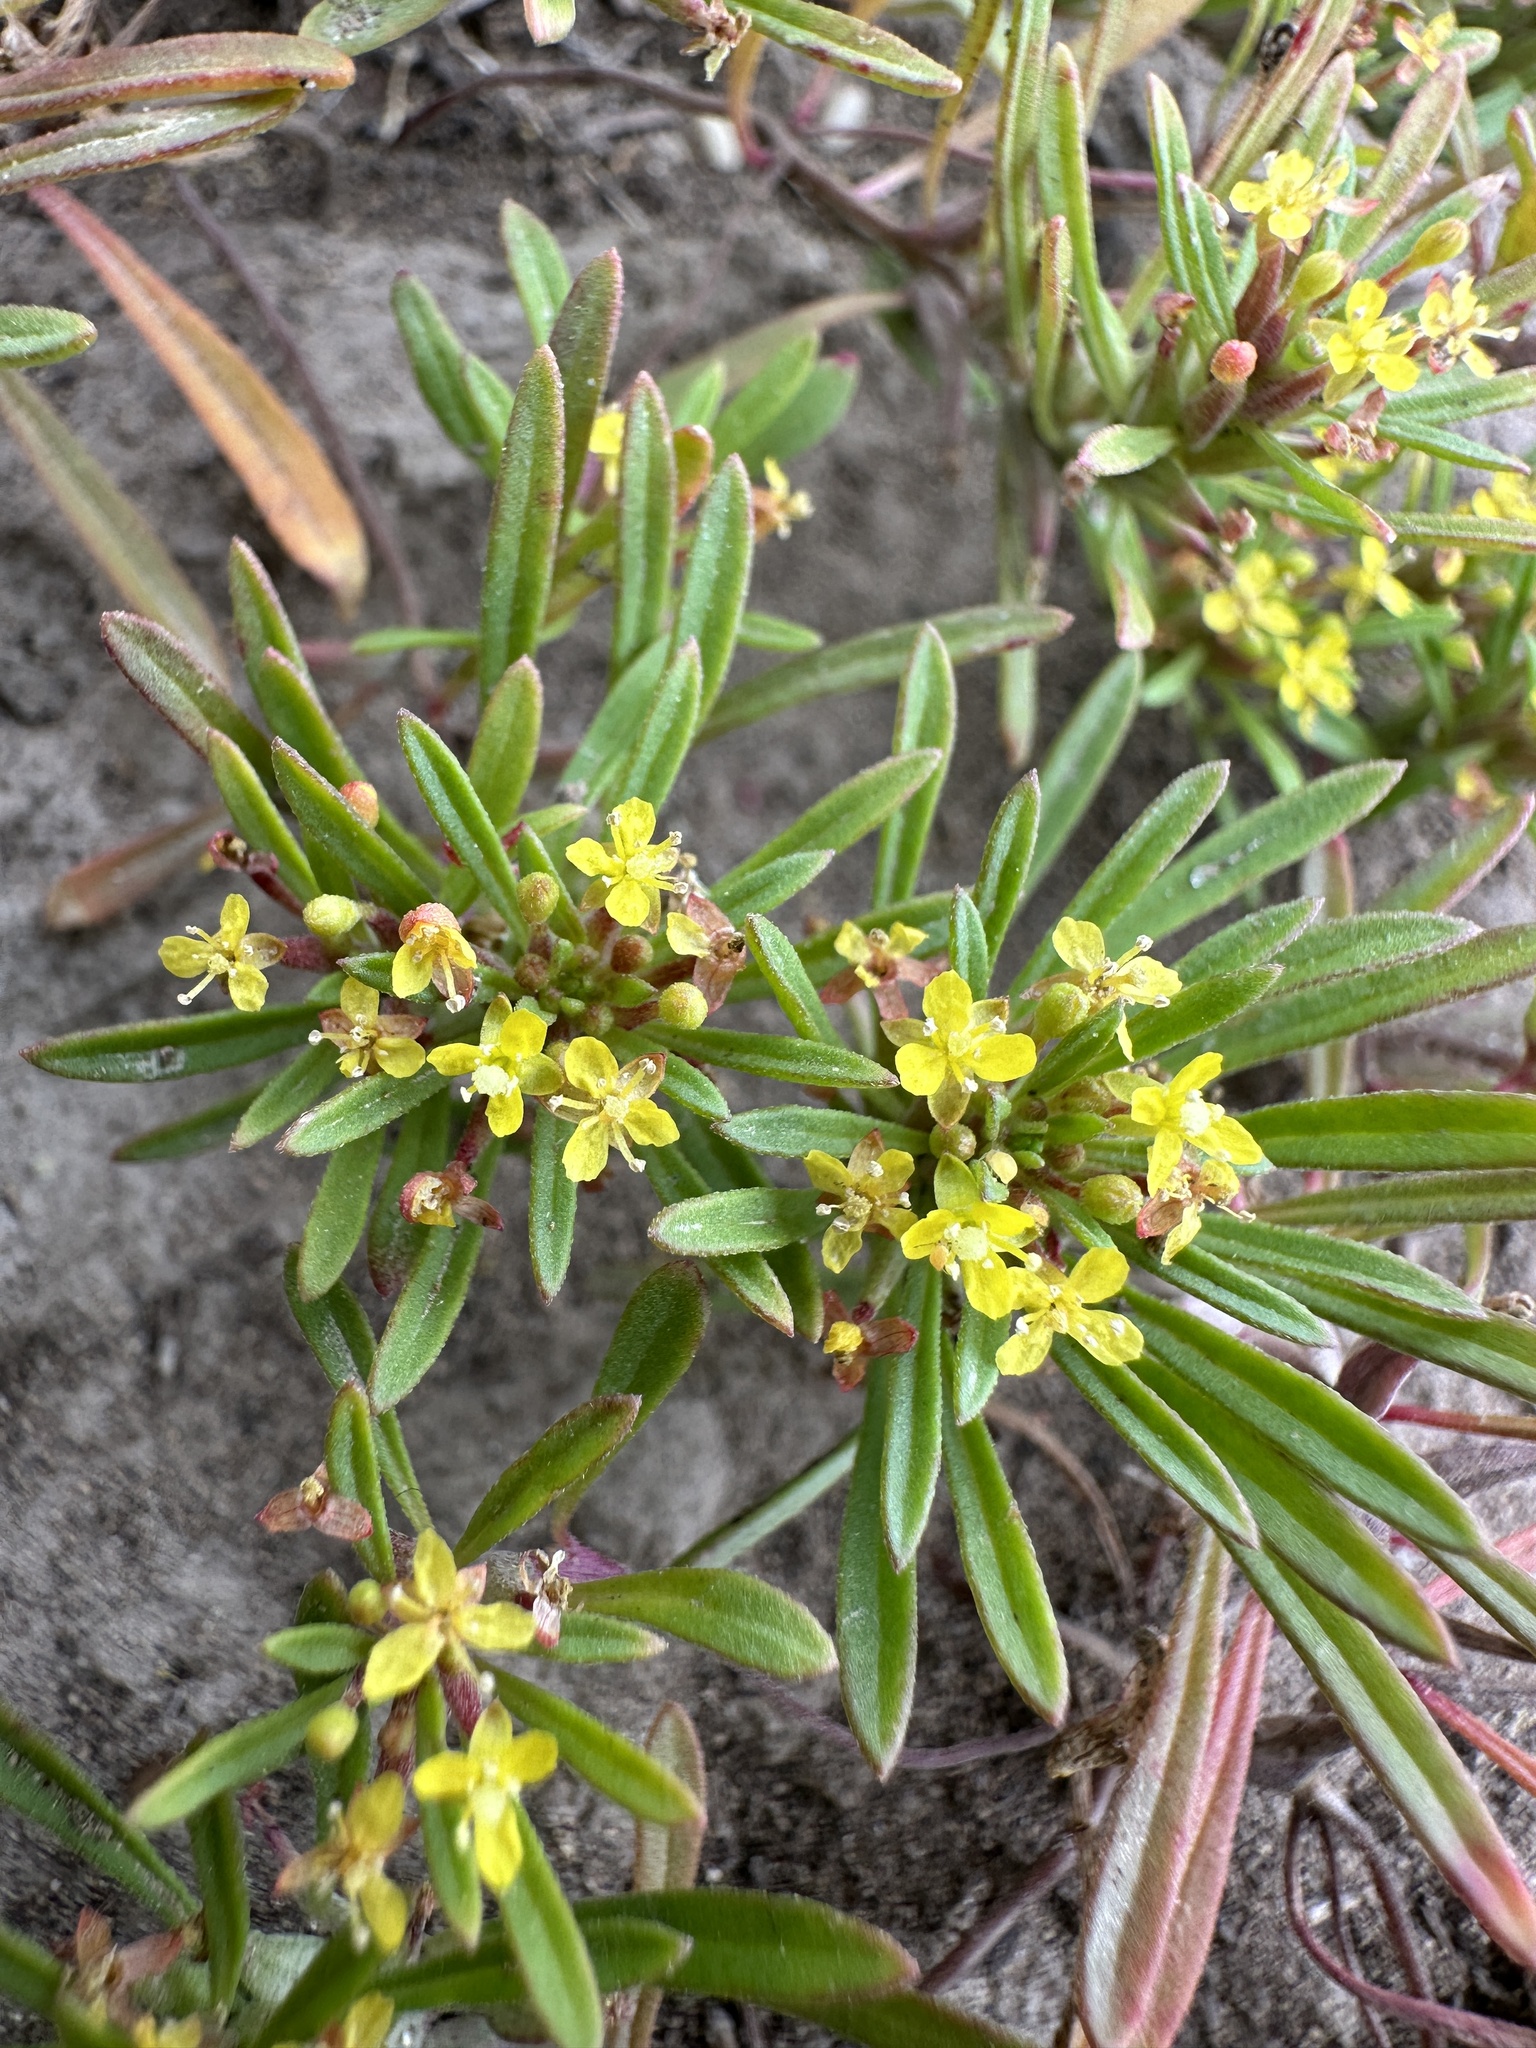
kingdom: Plantae
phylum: Tracheophyta
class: Magnoliopsida
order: Myrtales
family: Onagraceae
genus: Neoholmgrenia
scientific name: Neoholmgrenia andina
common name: Andean evening primrose
